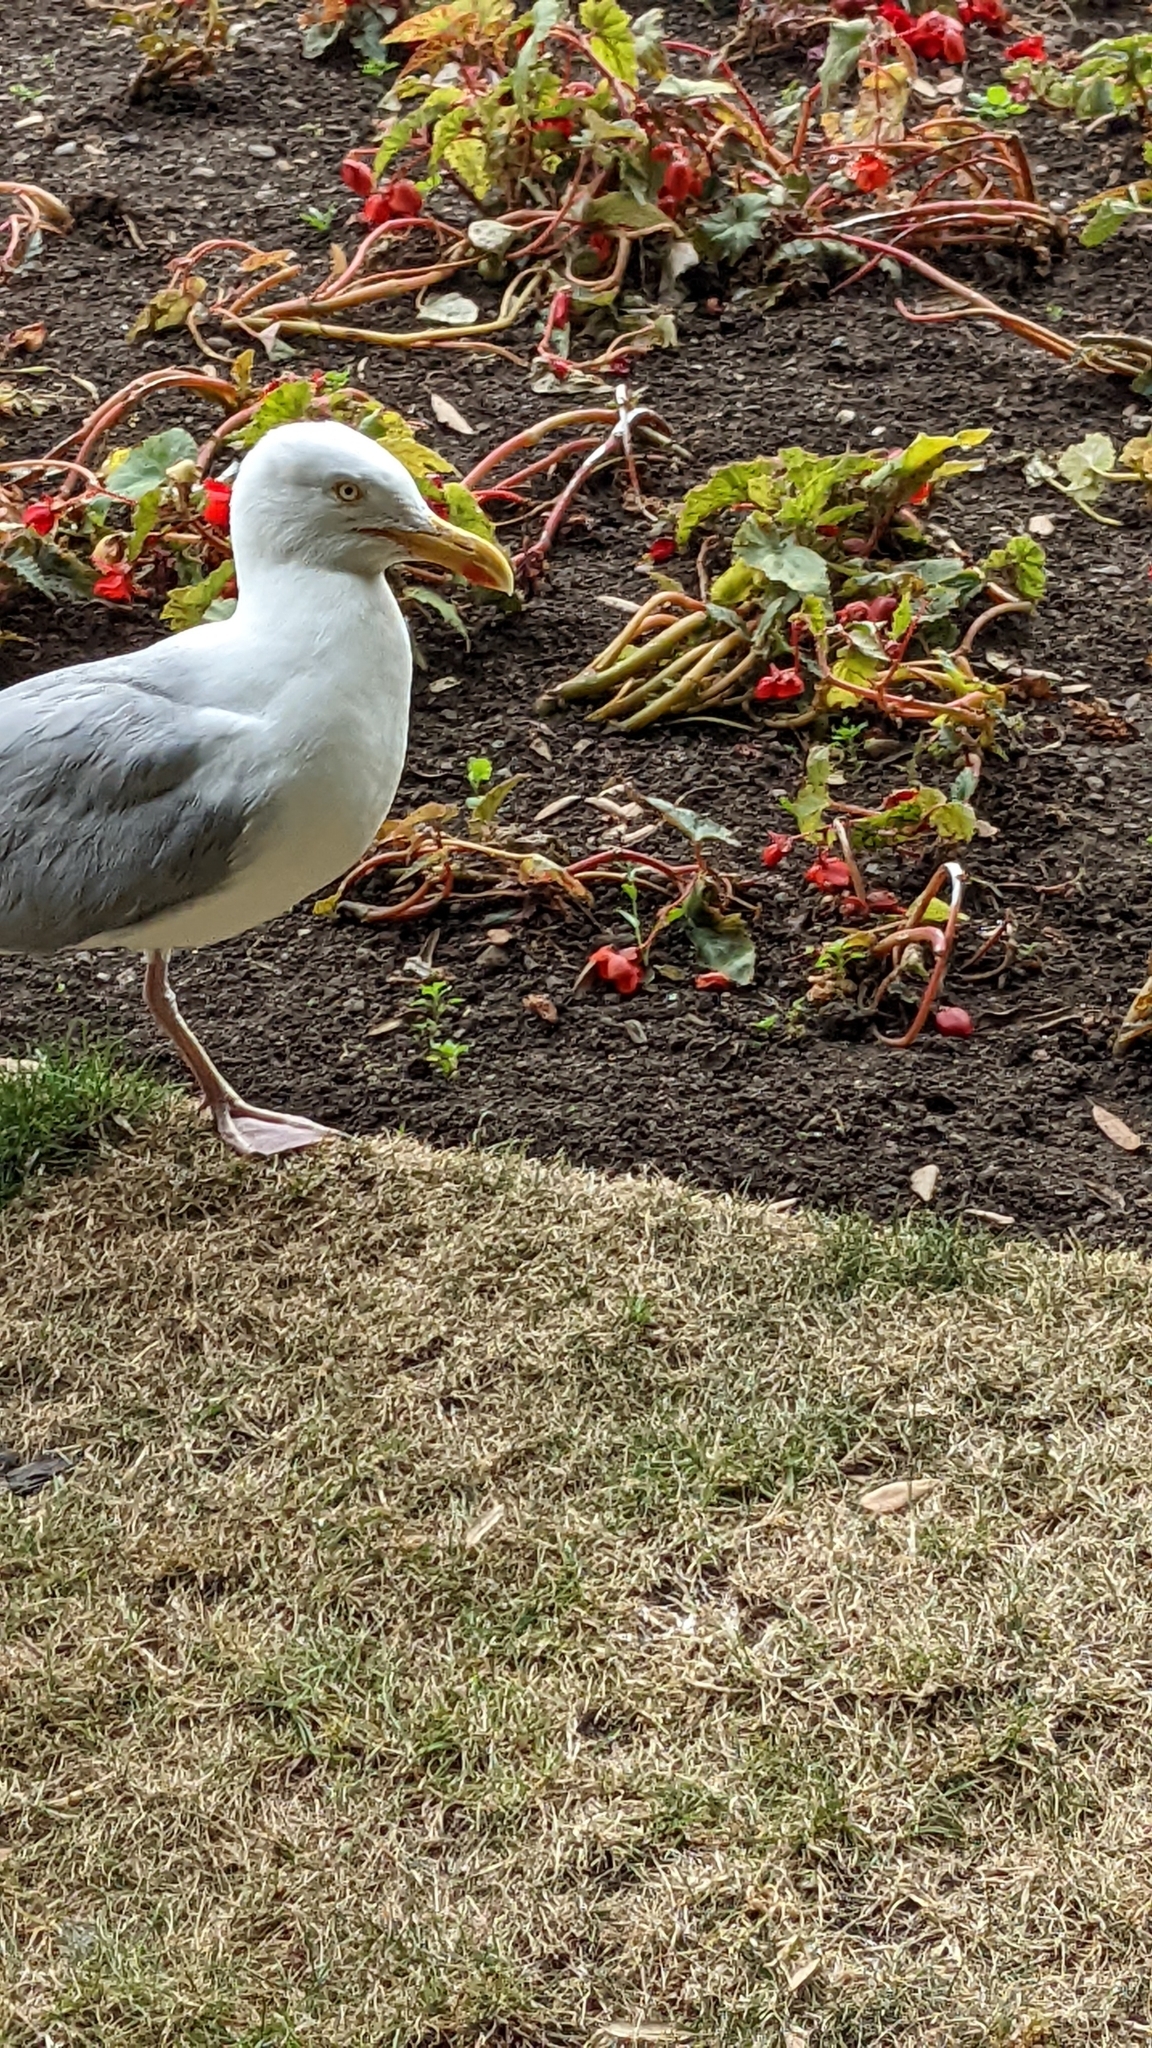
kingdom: Animalia
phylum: Chordata
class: Aves
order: Charadriiformes
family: Laridae
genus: Larus
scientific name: Larus argentatus
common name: Herring gull
